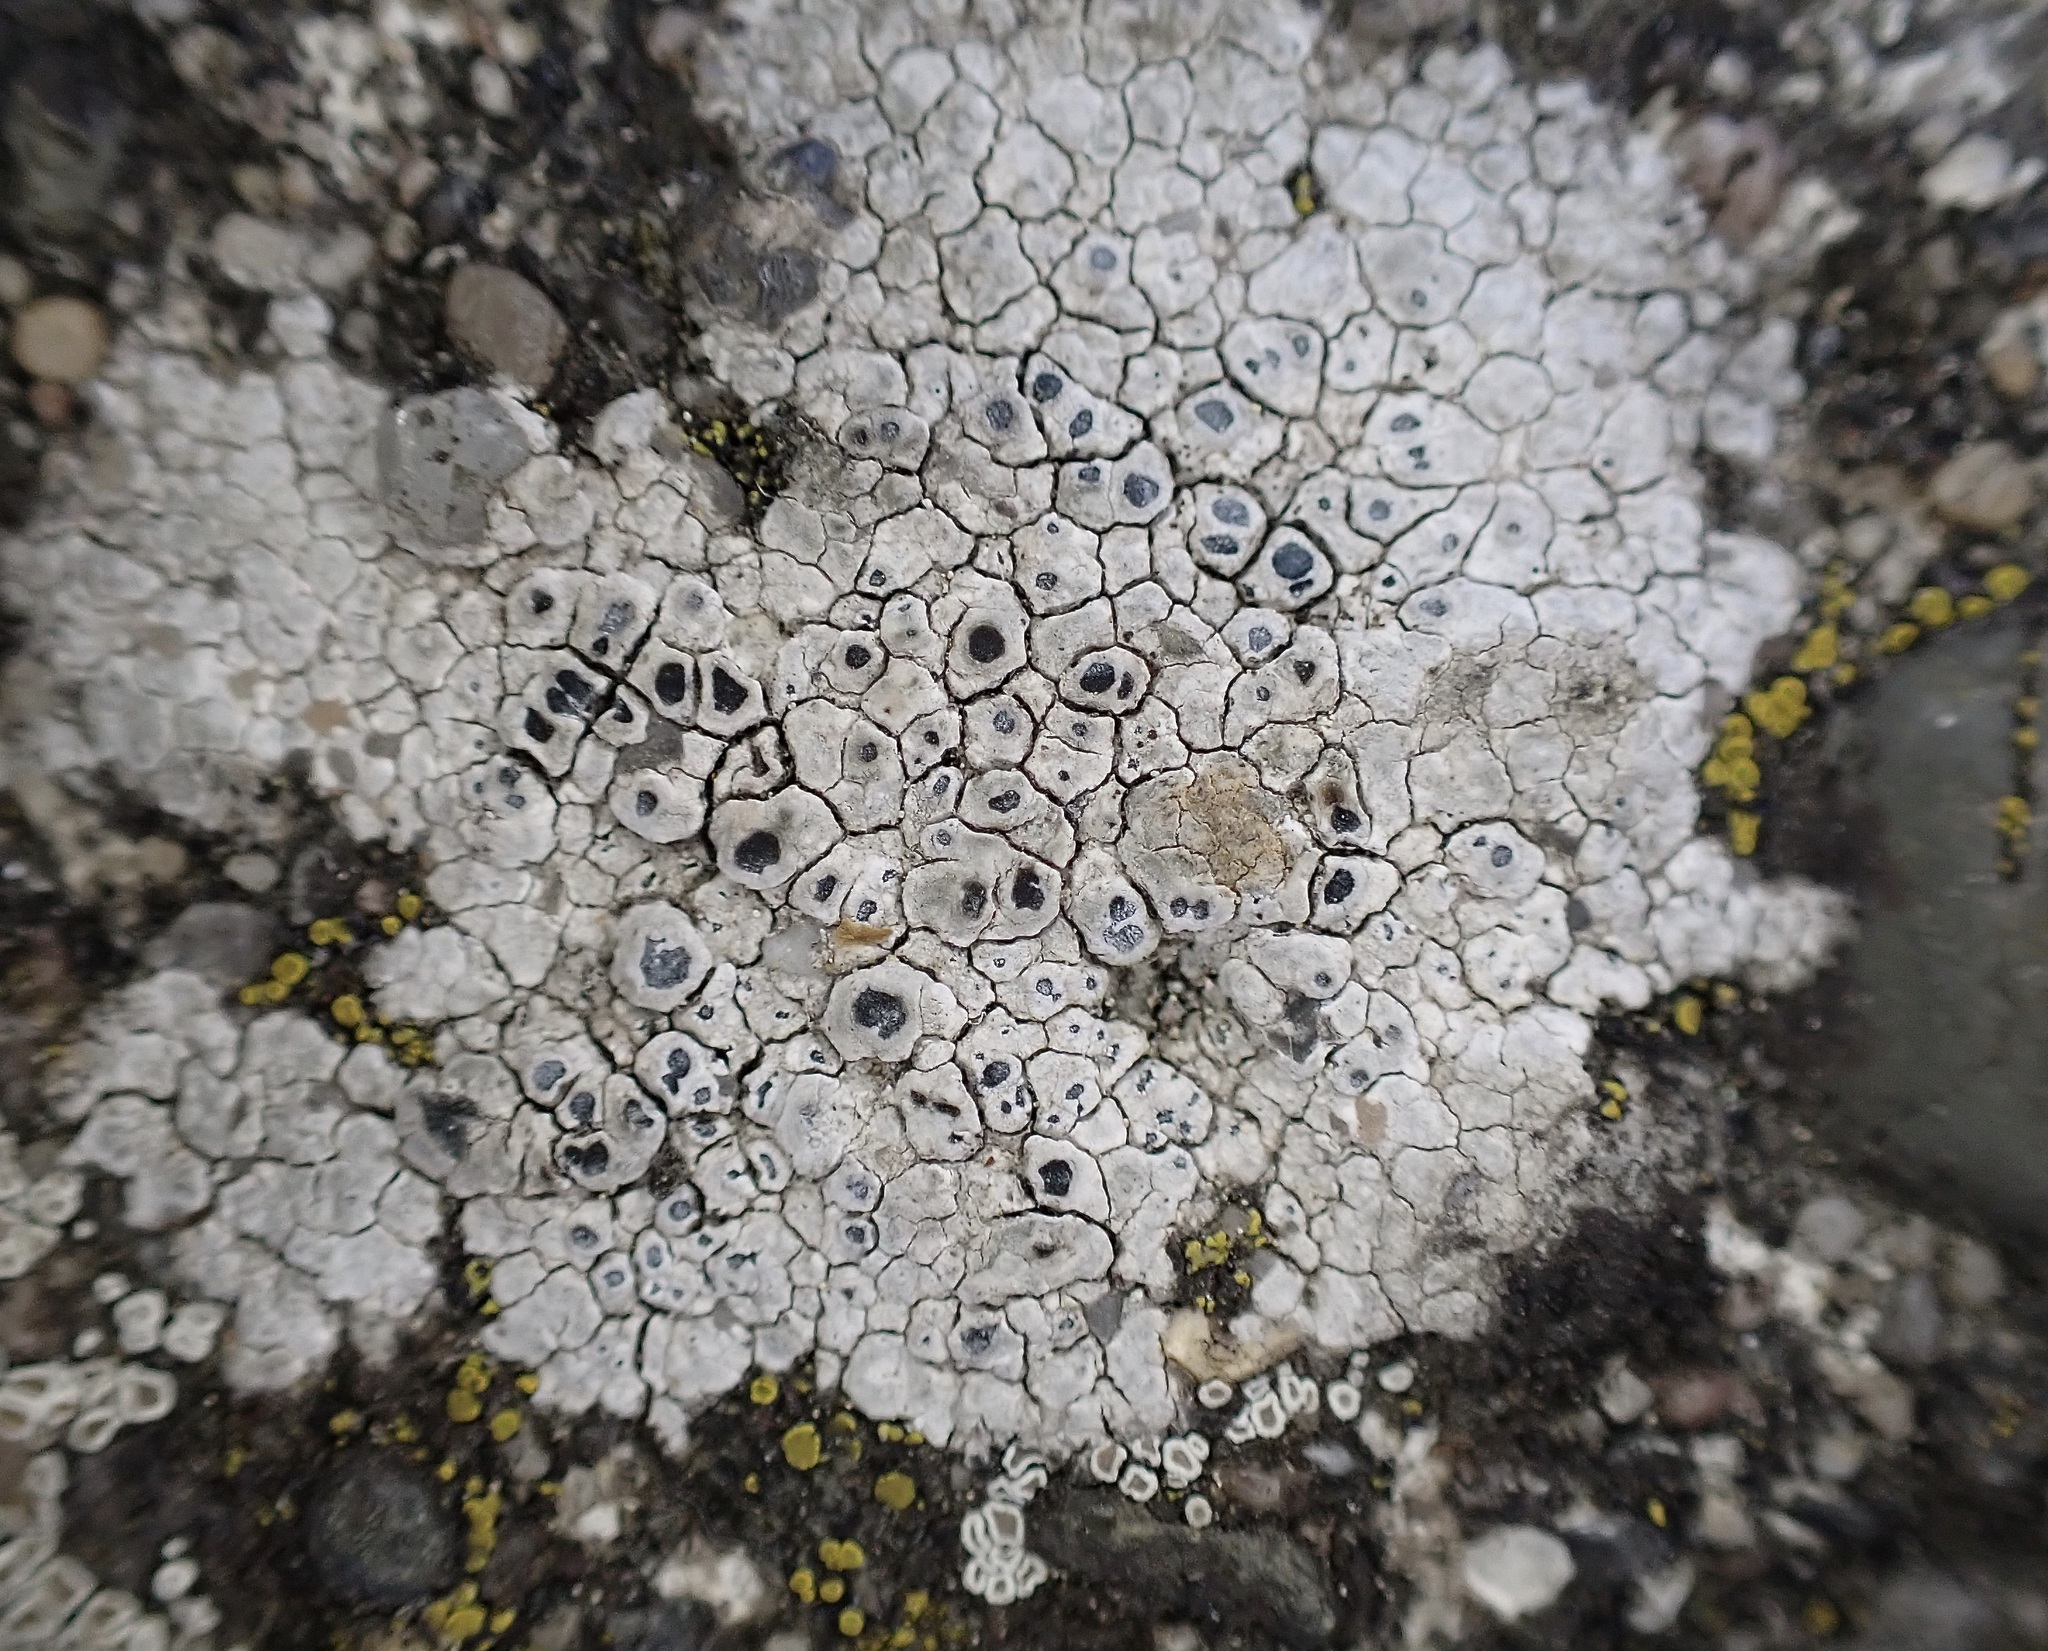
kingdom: Fungi
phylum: Ascomycota
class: Lecanoromycetes
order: Pertusariales
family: Megasporaceae
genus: Circinaria
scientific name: Circinaria contorta
